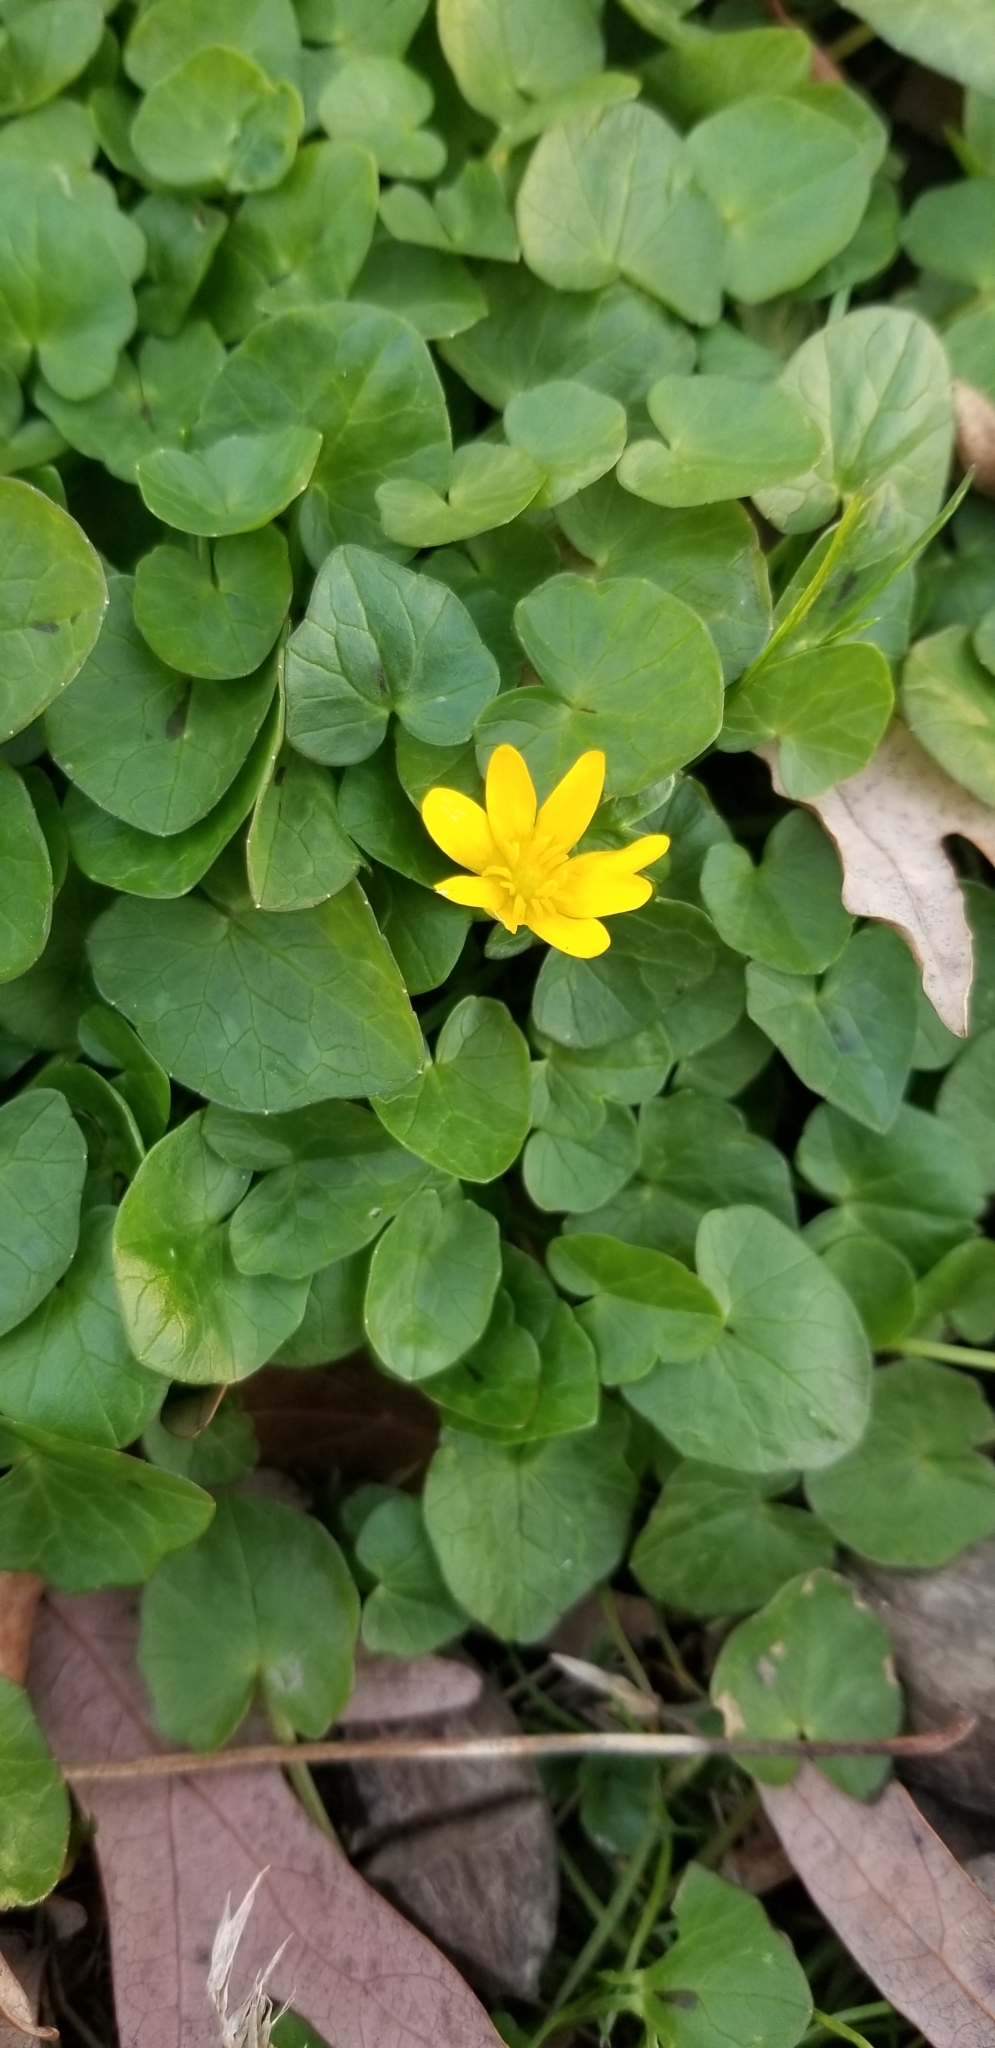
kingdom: Plantae
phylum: Tracheophyta
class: Magnoliopsida
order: Ranunculales
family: Ranunculaceae
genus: Ficaria
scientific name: Ficaria verna
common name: Lesser celandine
